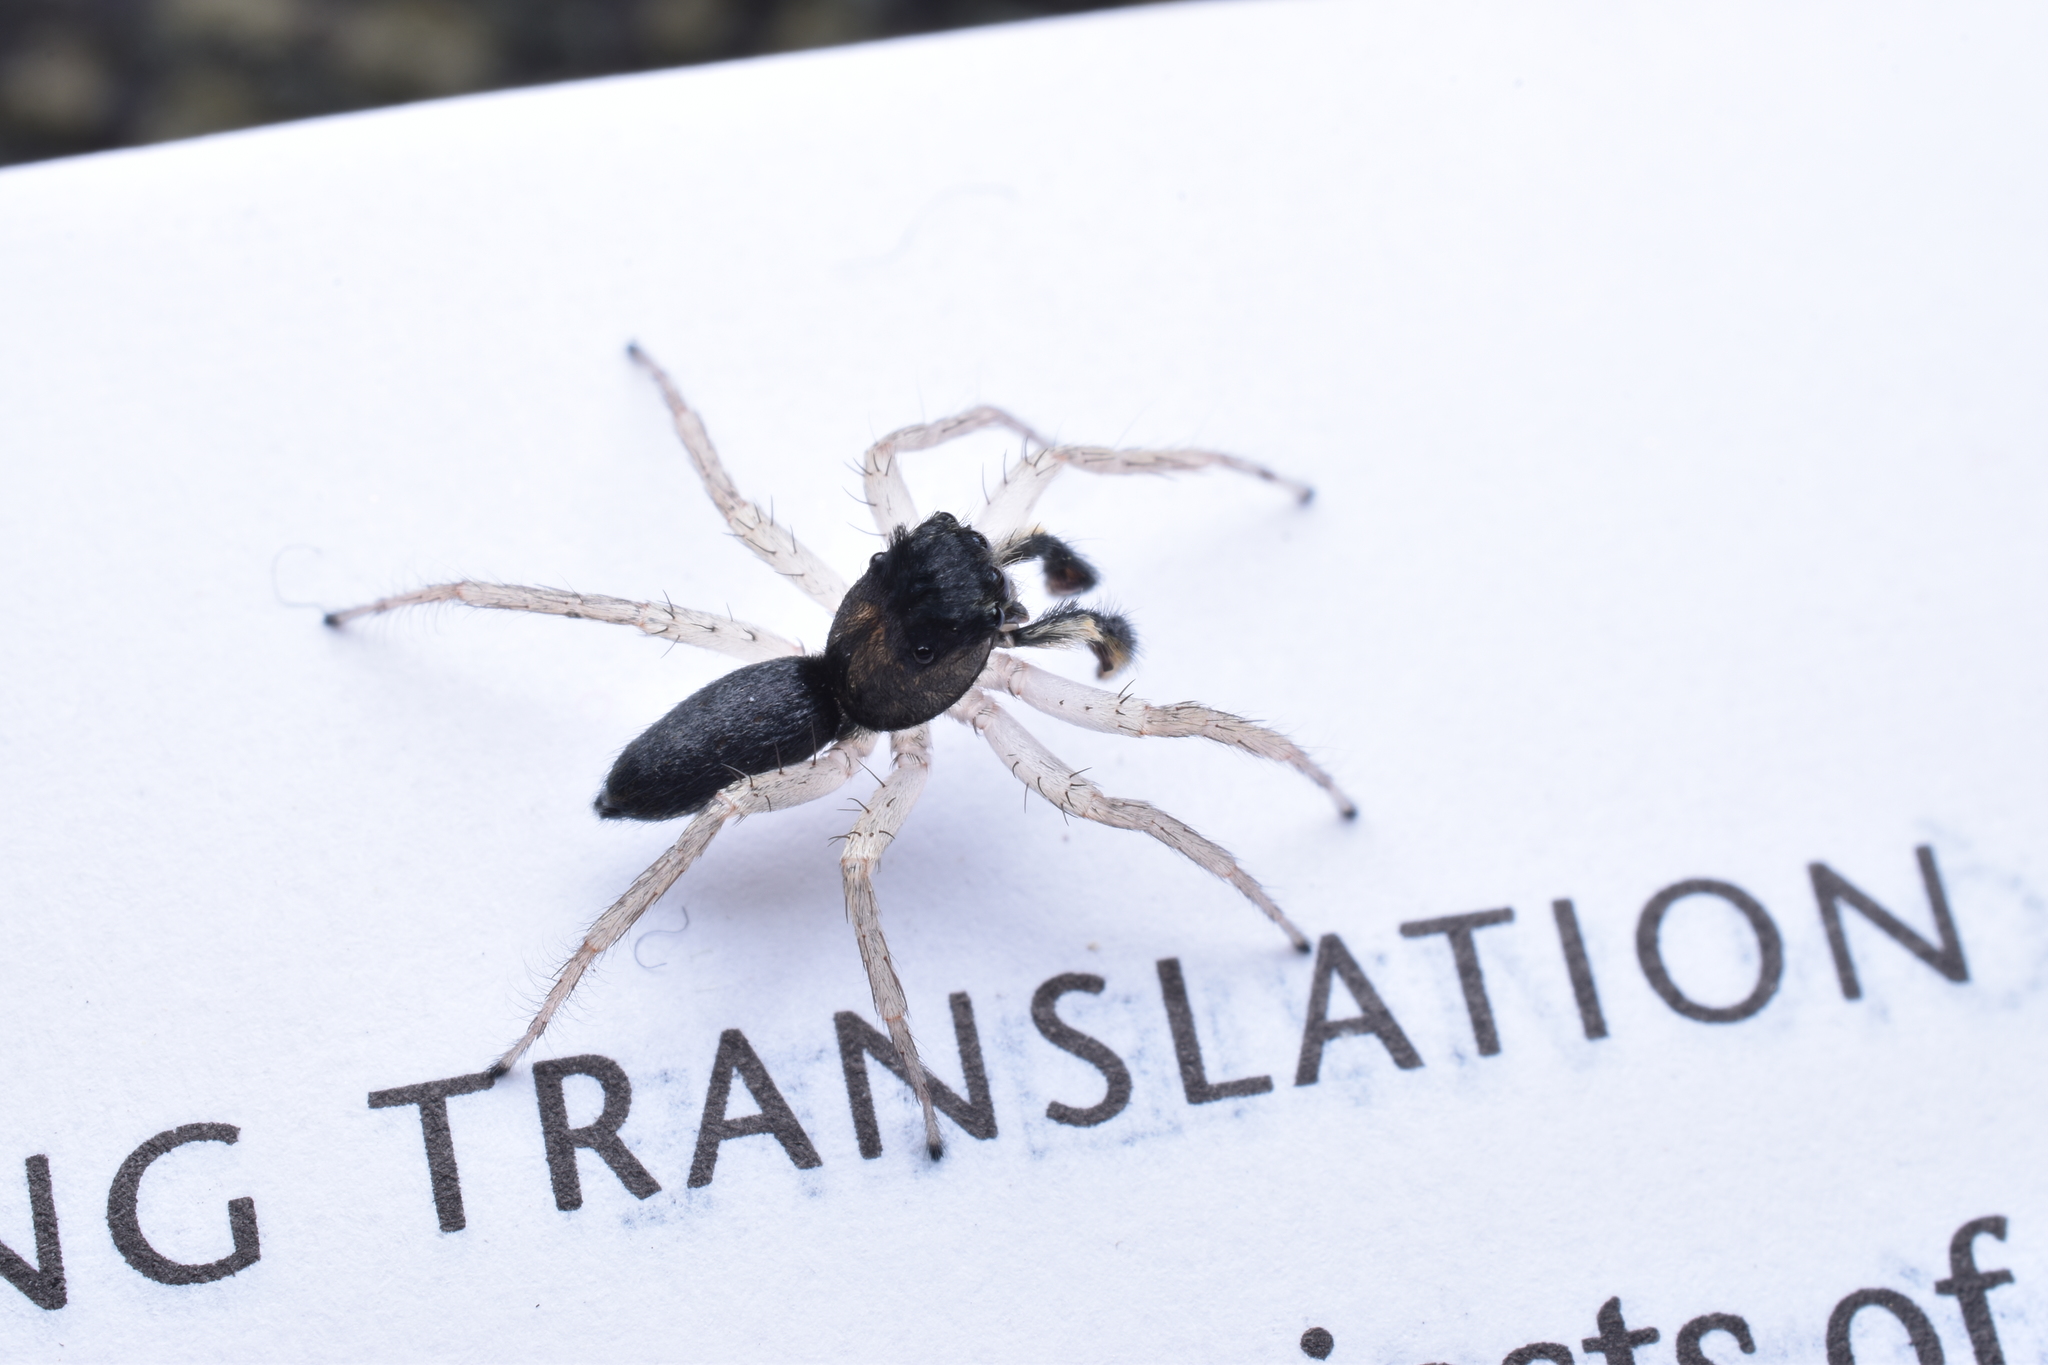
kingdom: Animalia
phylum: Arthropoda
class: Arachnida
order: Araneae
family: Salticidae
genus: Maevia
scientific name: Maevia inclemens
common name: Dimorphic jumper
